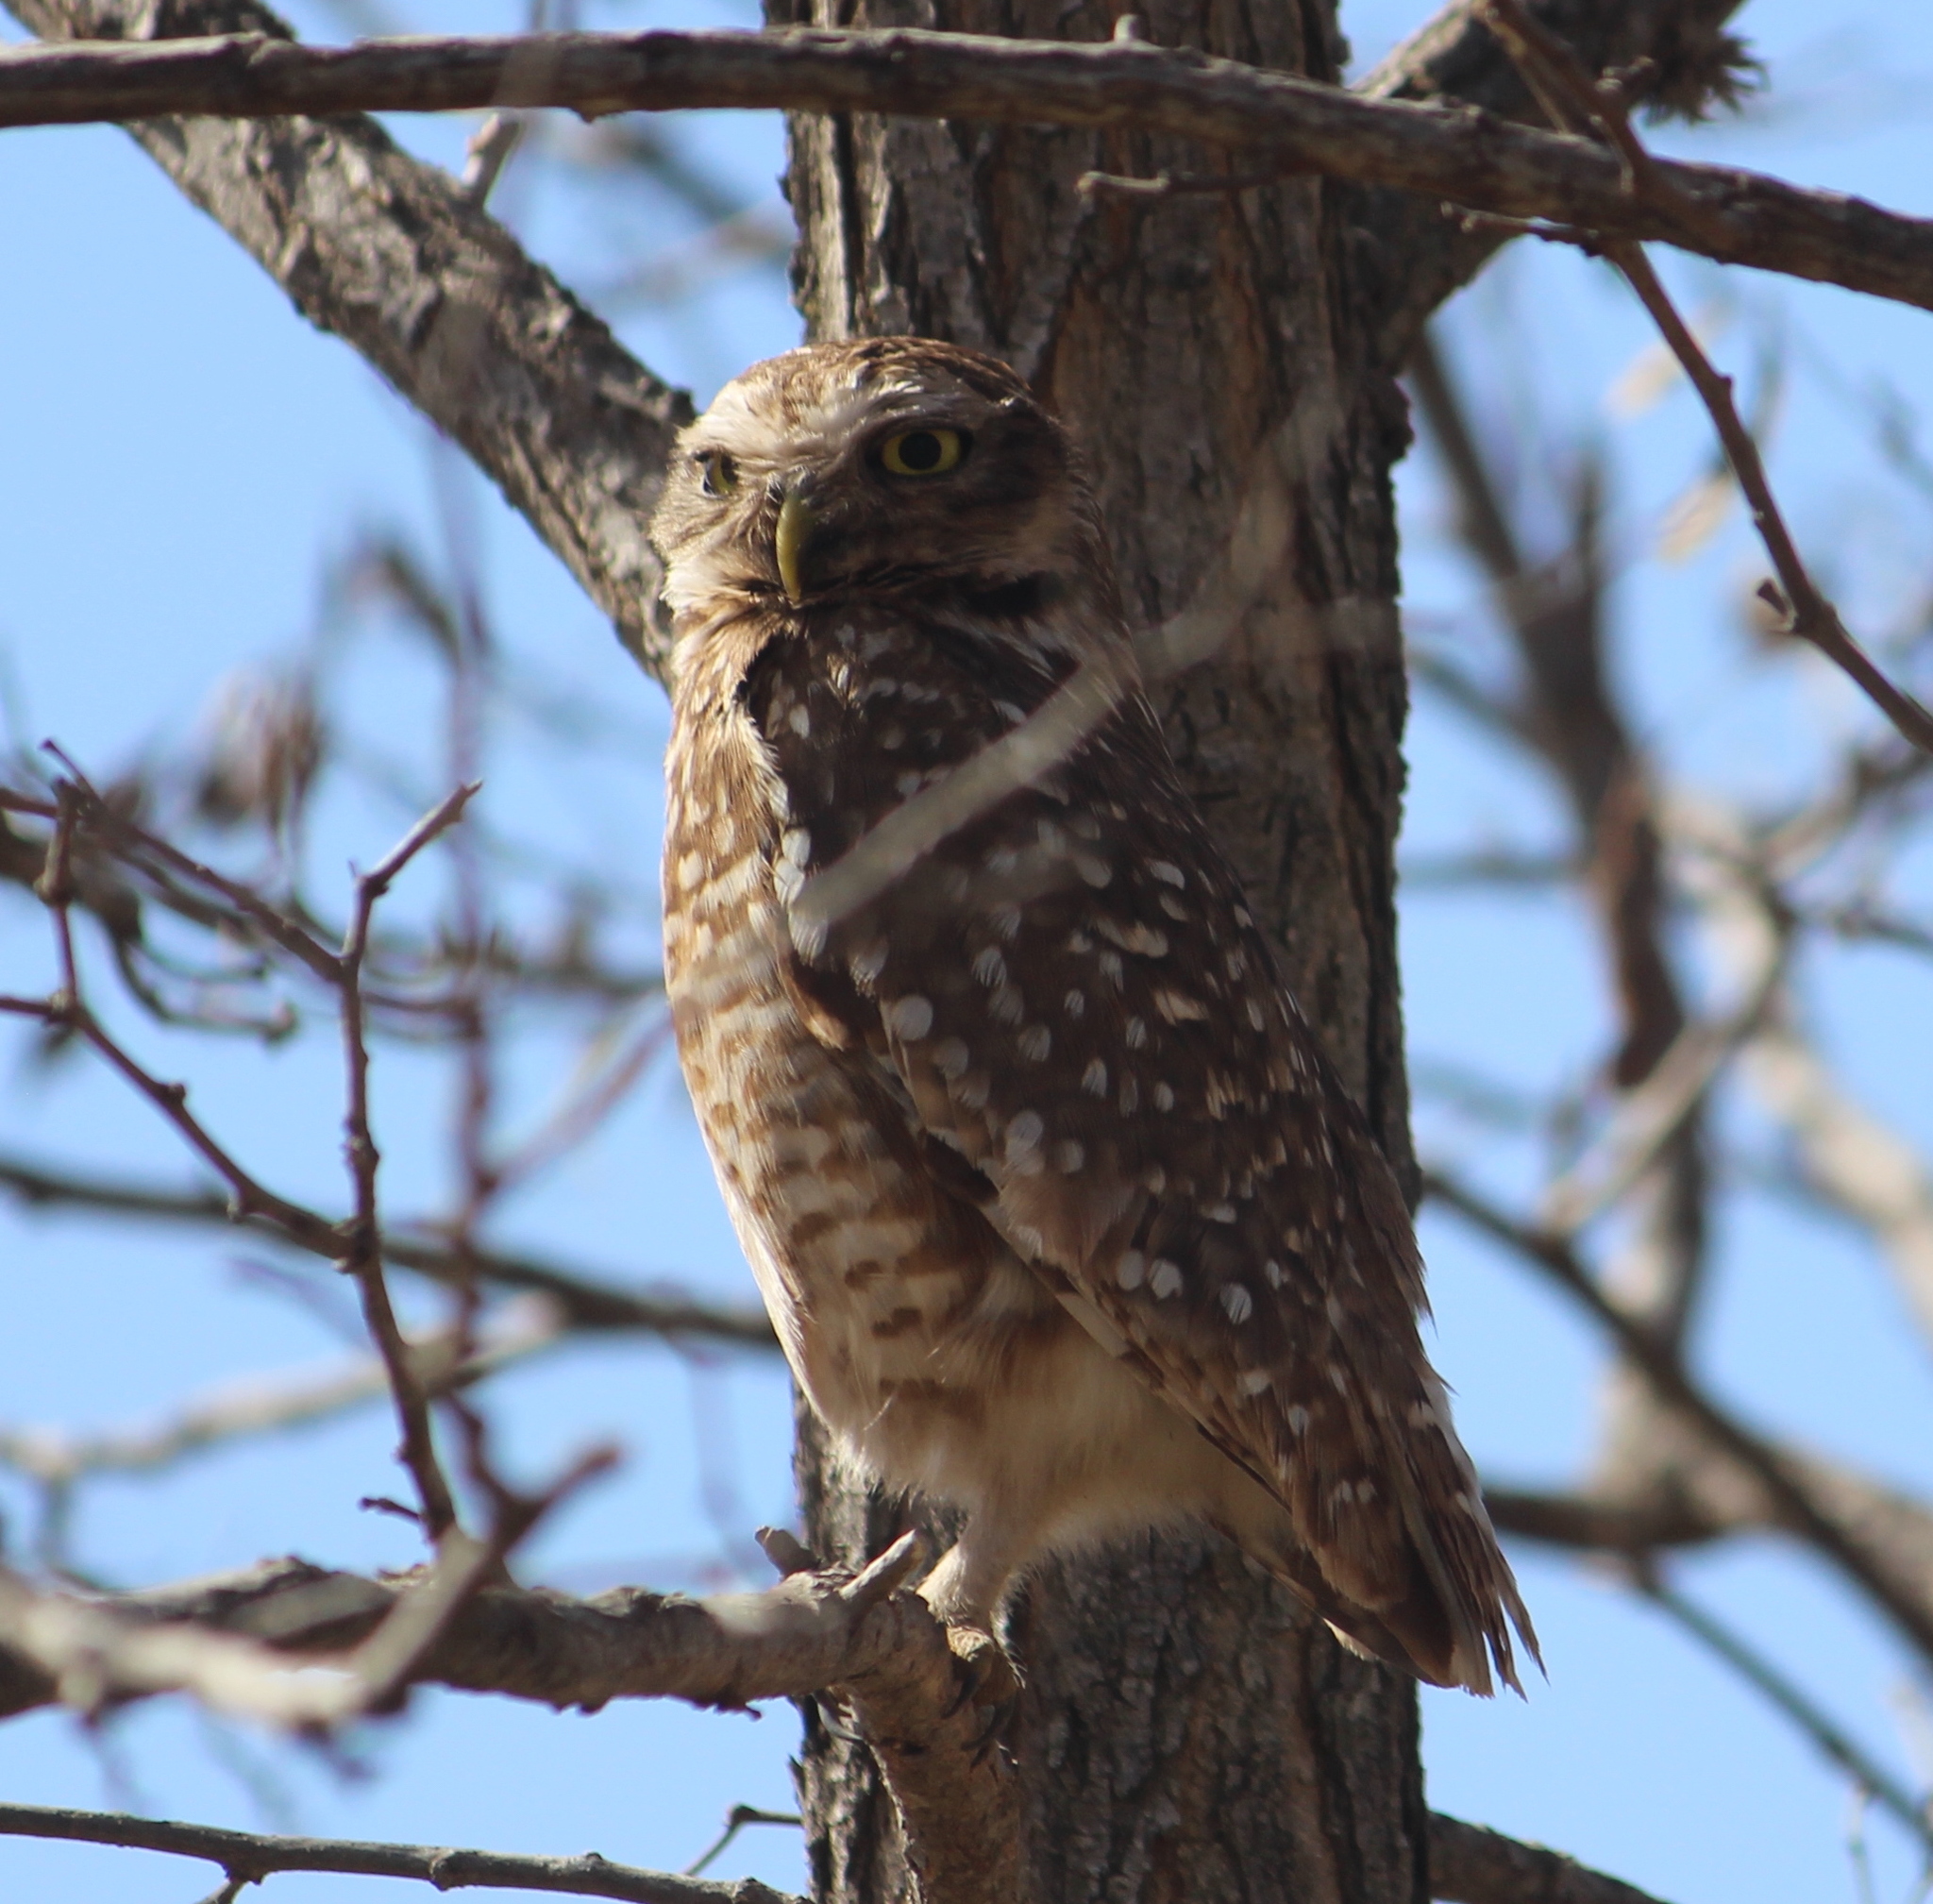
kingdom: Animalia
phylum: Chordata
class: Aves
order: Strigiformes
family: Strigidae
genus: Athene
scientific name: Athene cunicularia
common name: Burrowing owl
